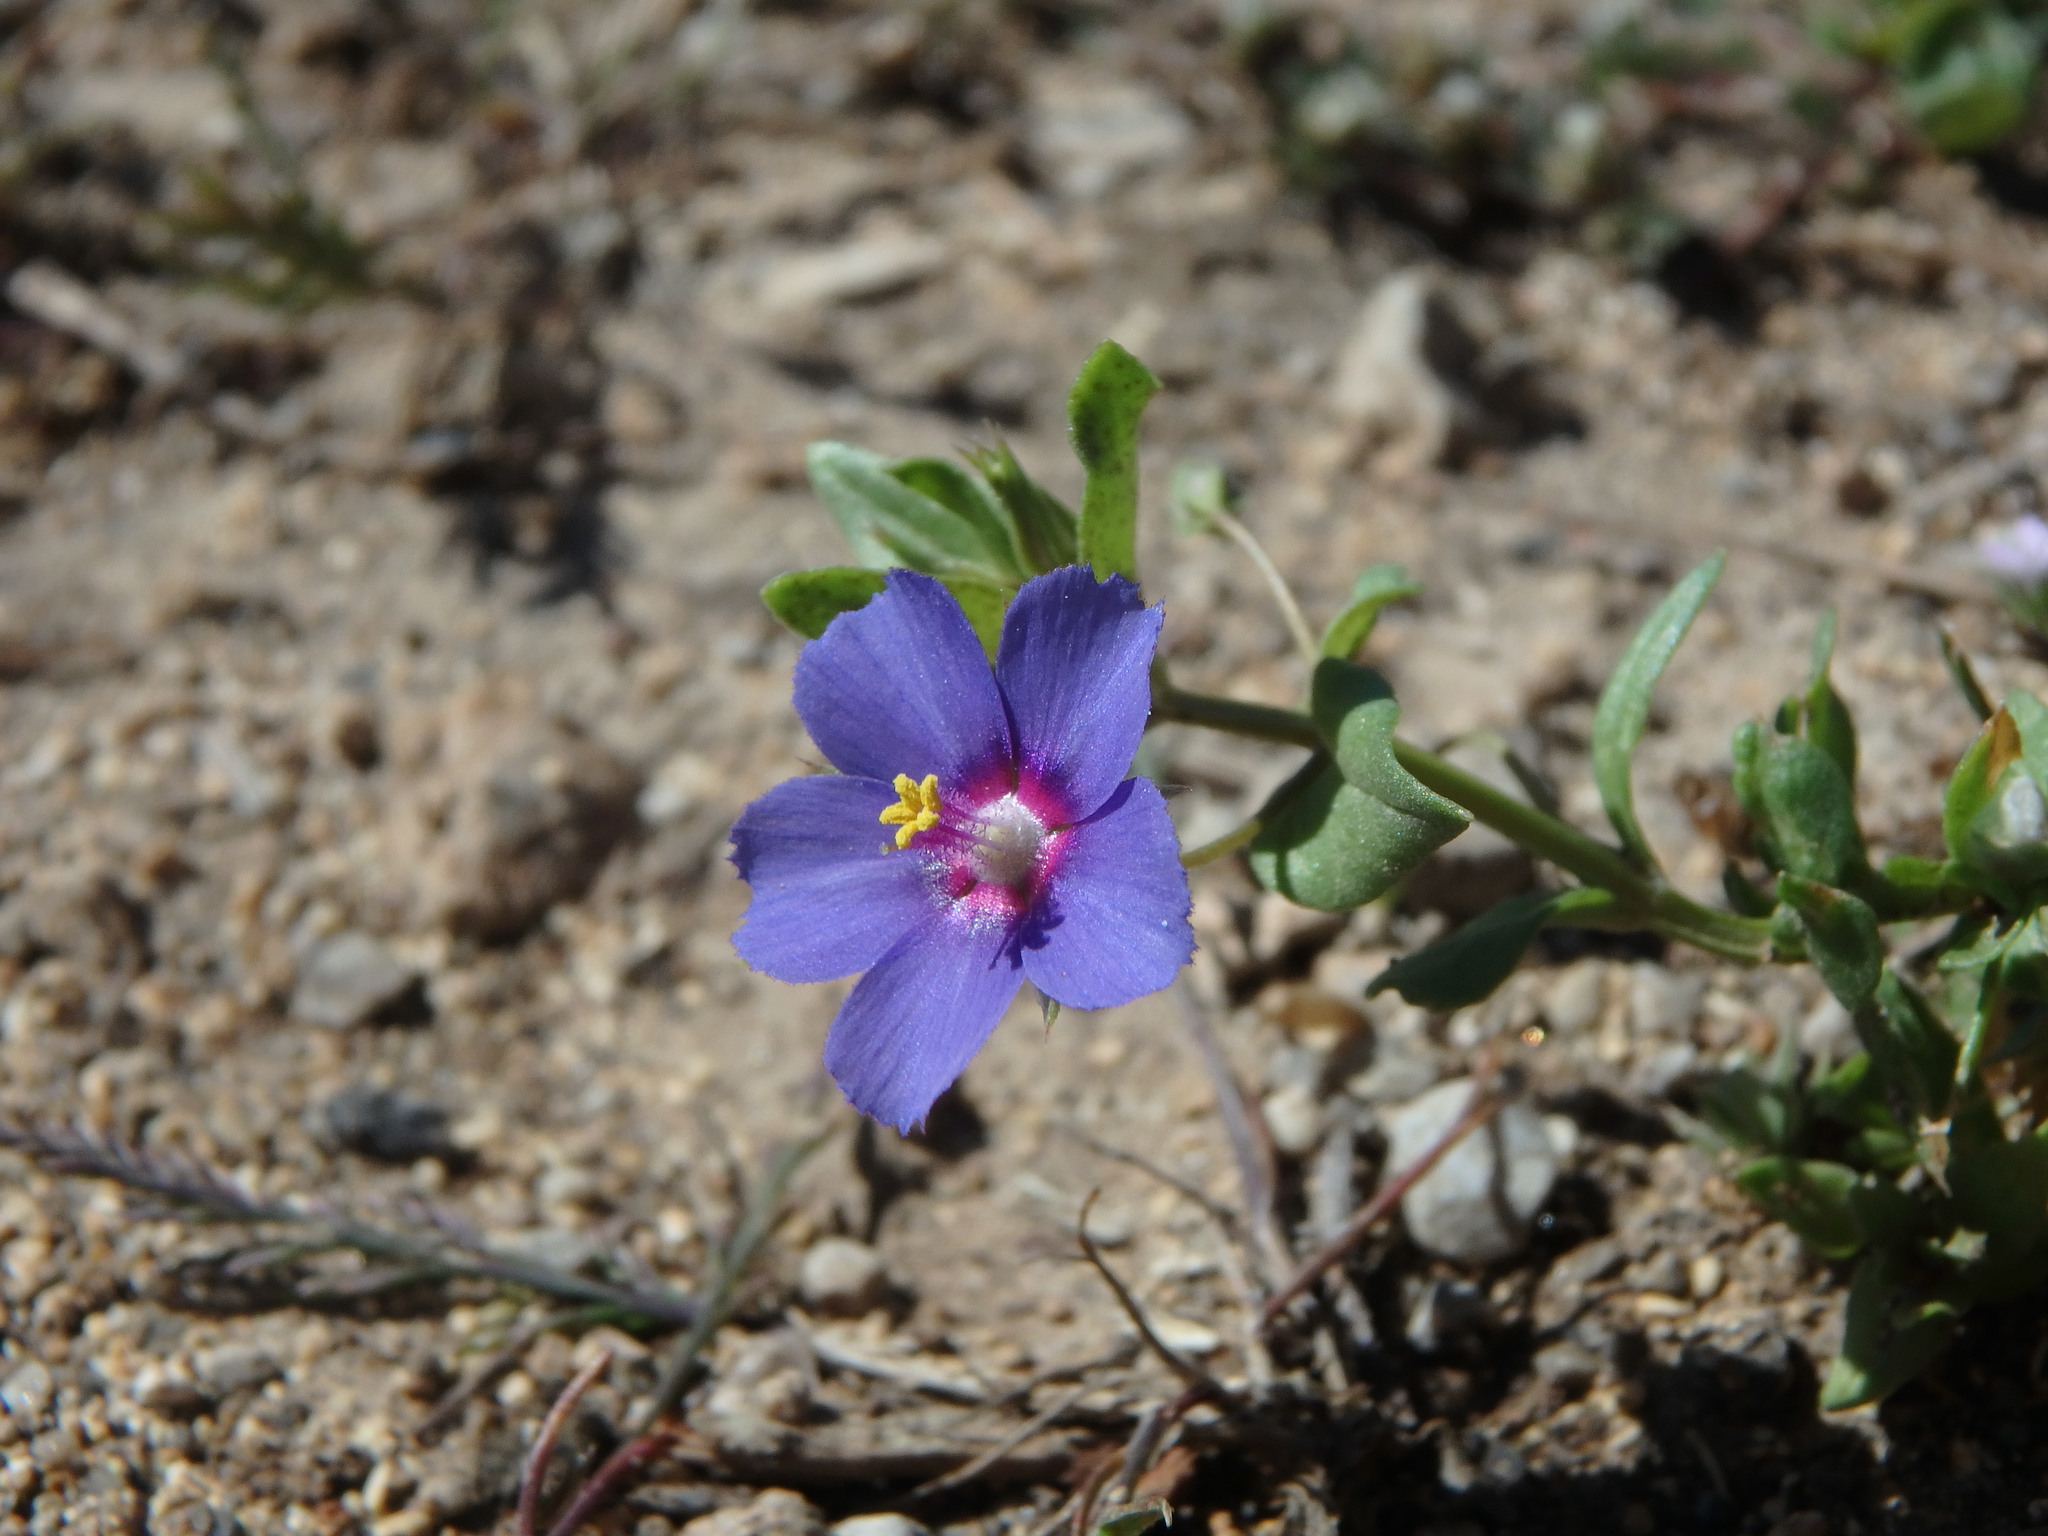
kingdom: Plantae
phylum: Tracheophyta
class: Magnoliopsida
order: Ericales
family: Primulaceae
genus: Lysimachia
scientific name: Lysimachia arvensis
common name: Scarlet pimpernel
